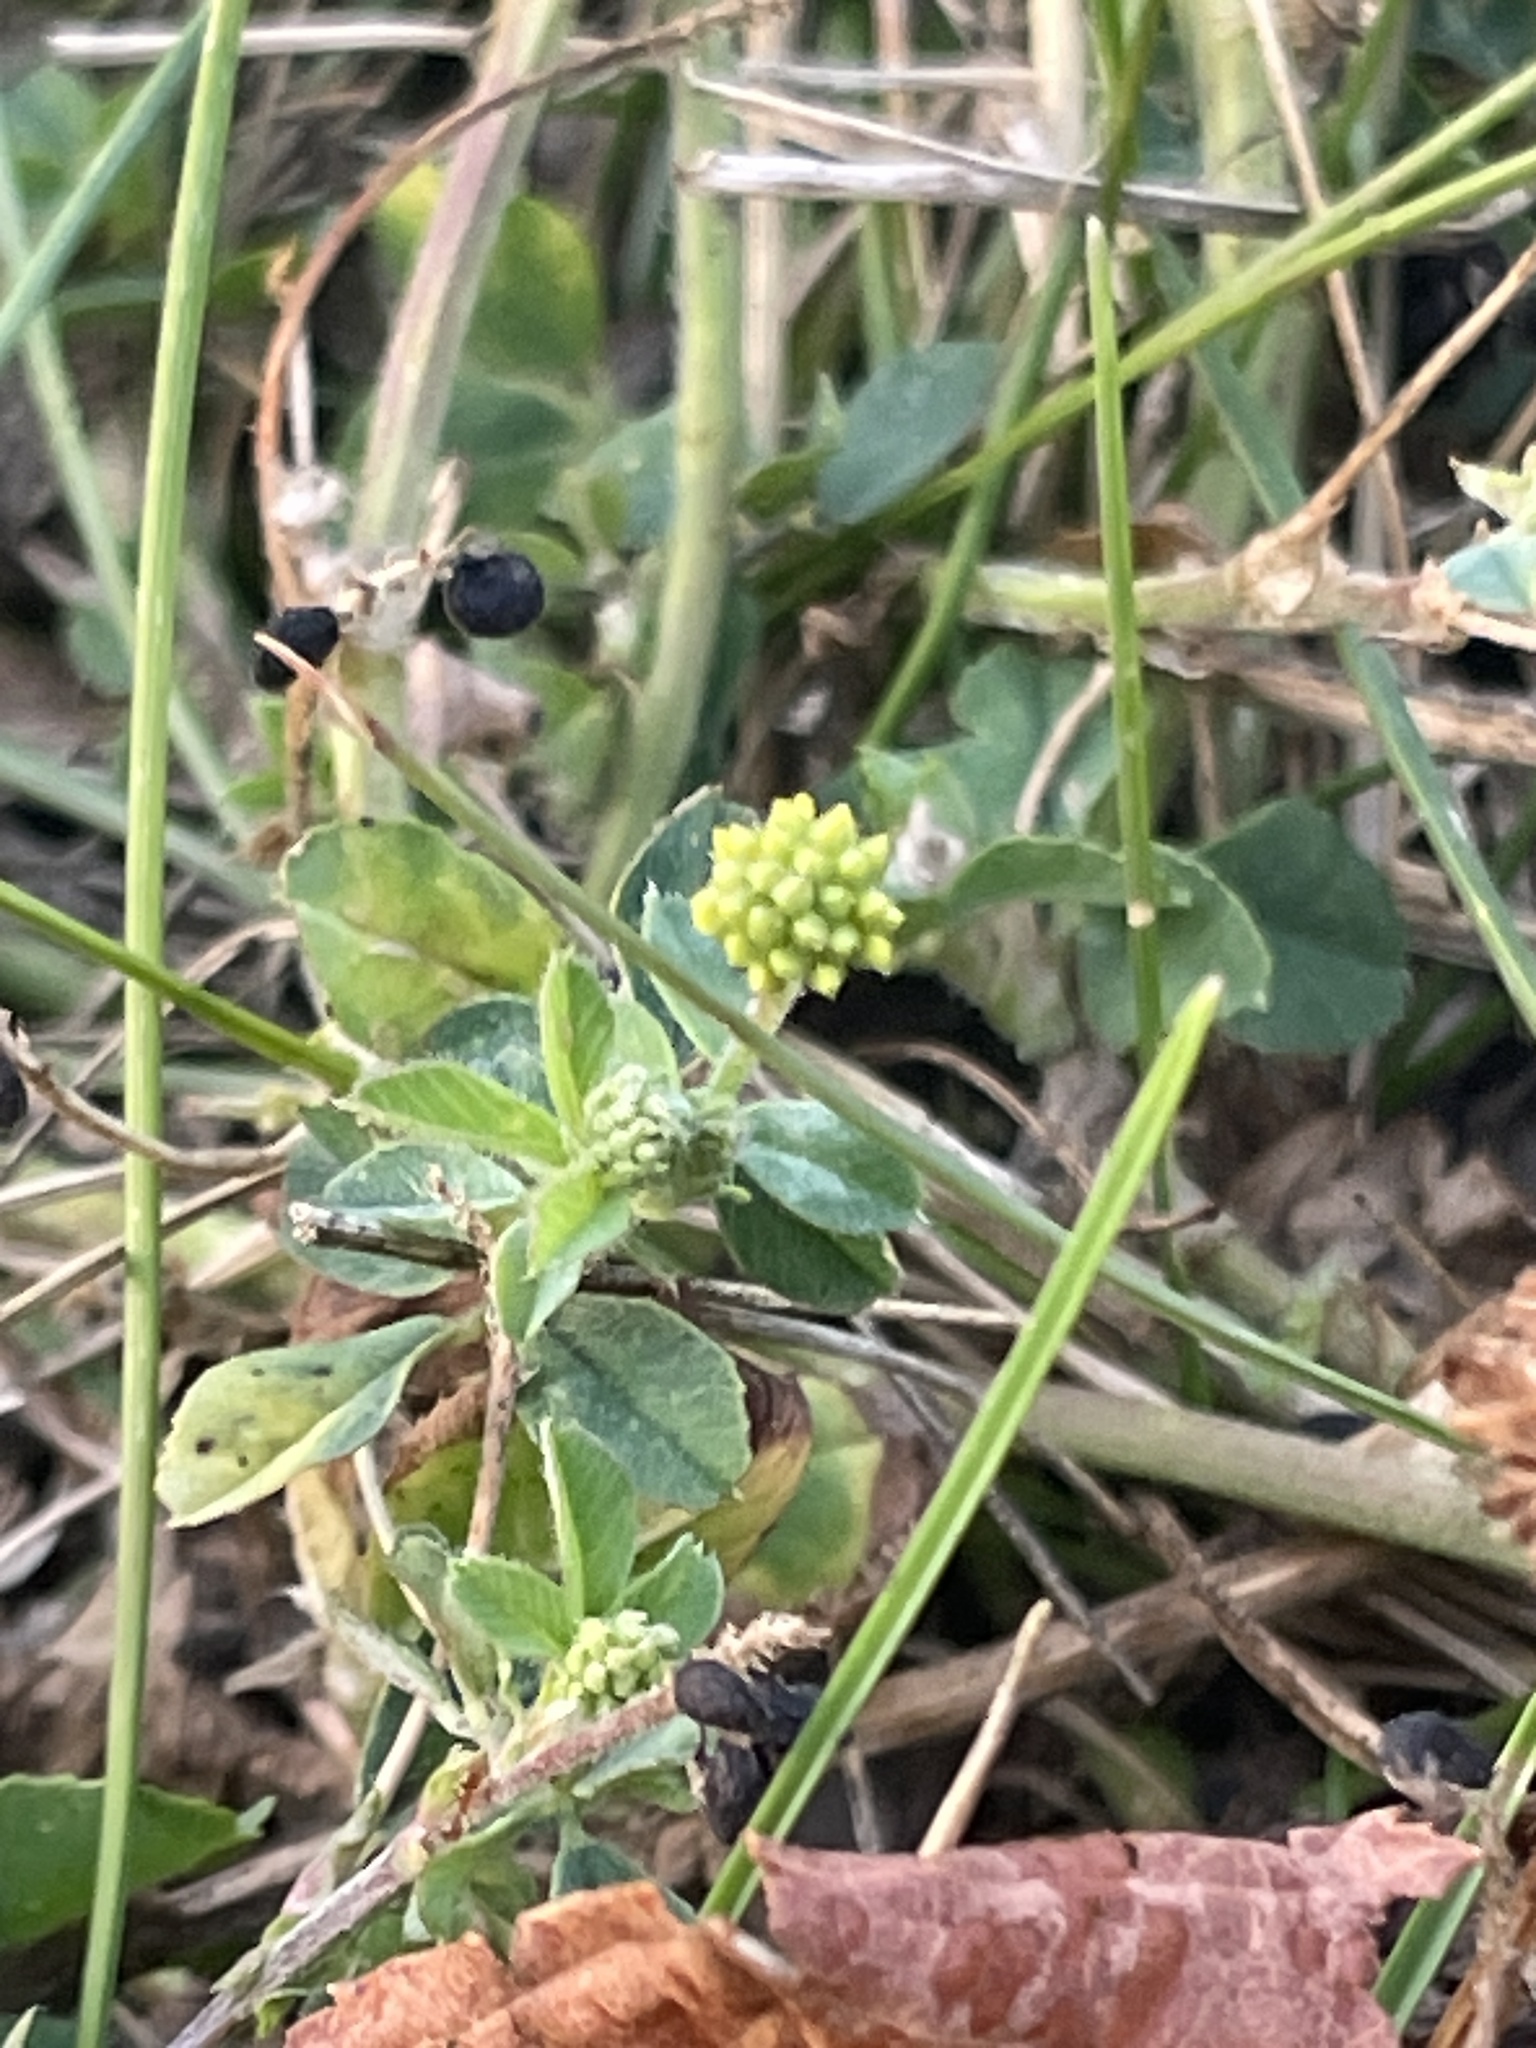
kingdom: Plantae
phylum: Tracheophyta
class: Magnoliopsida
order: Fabales
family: Fabaceae
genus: Medicago
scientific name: Medicago lupulina
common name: Black medick
